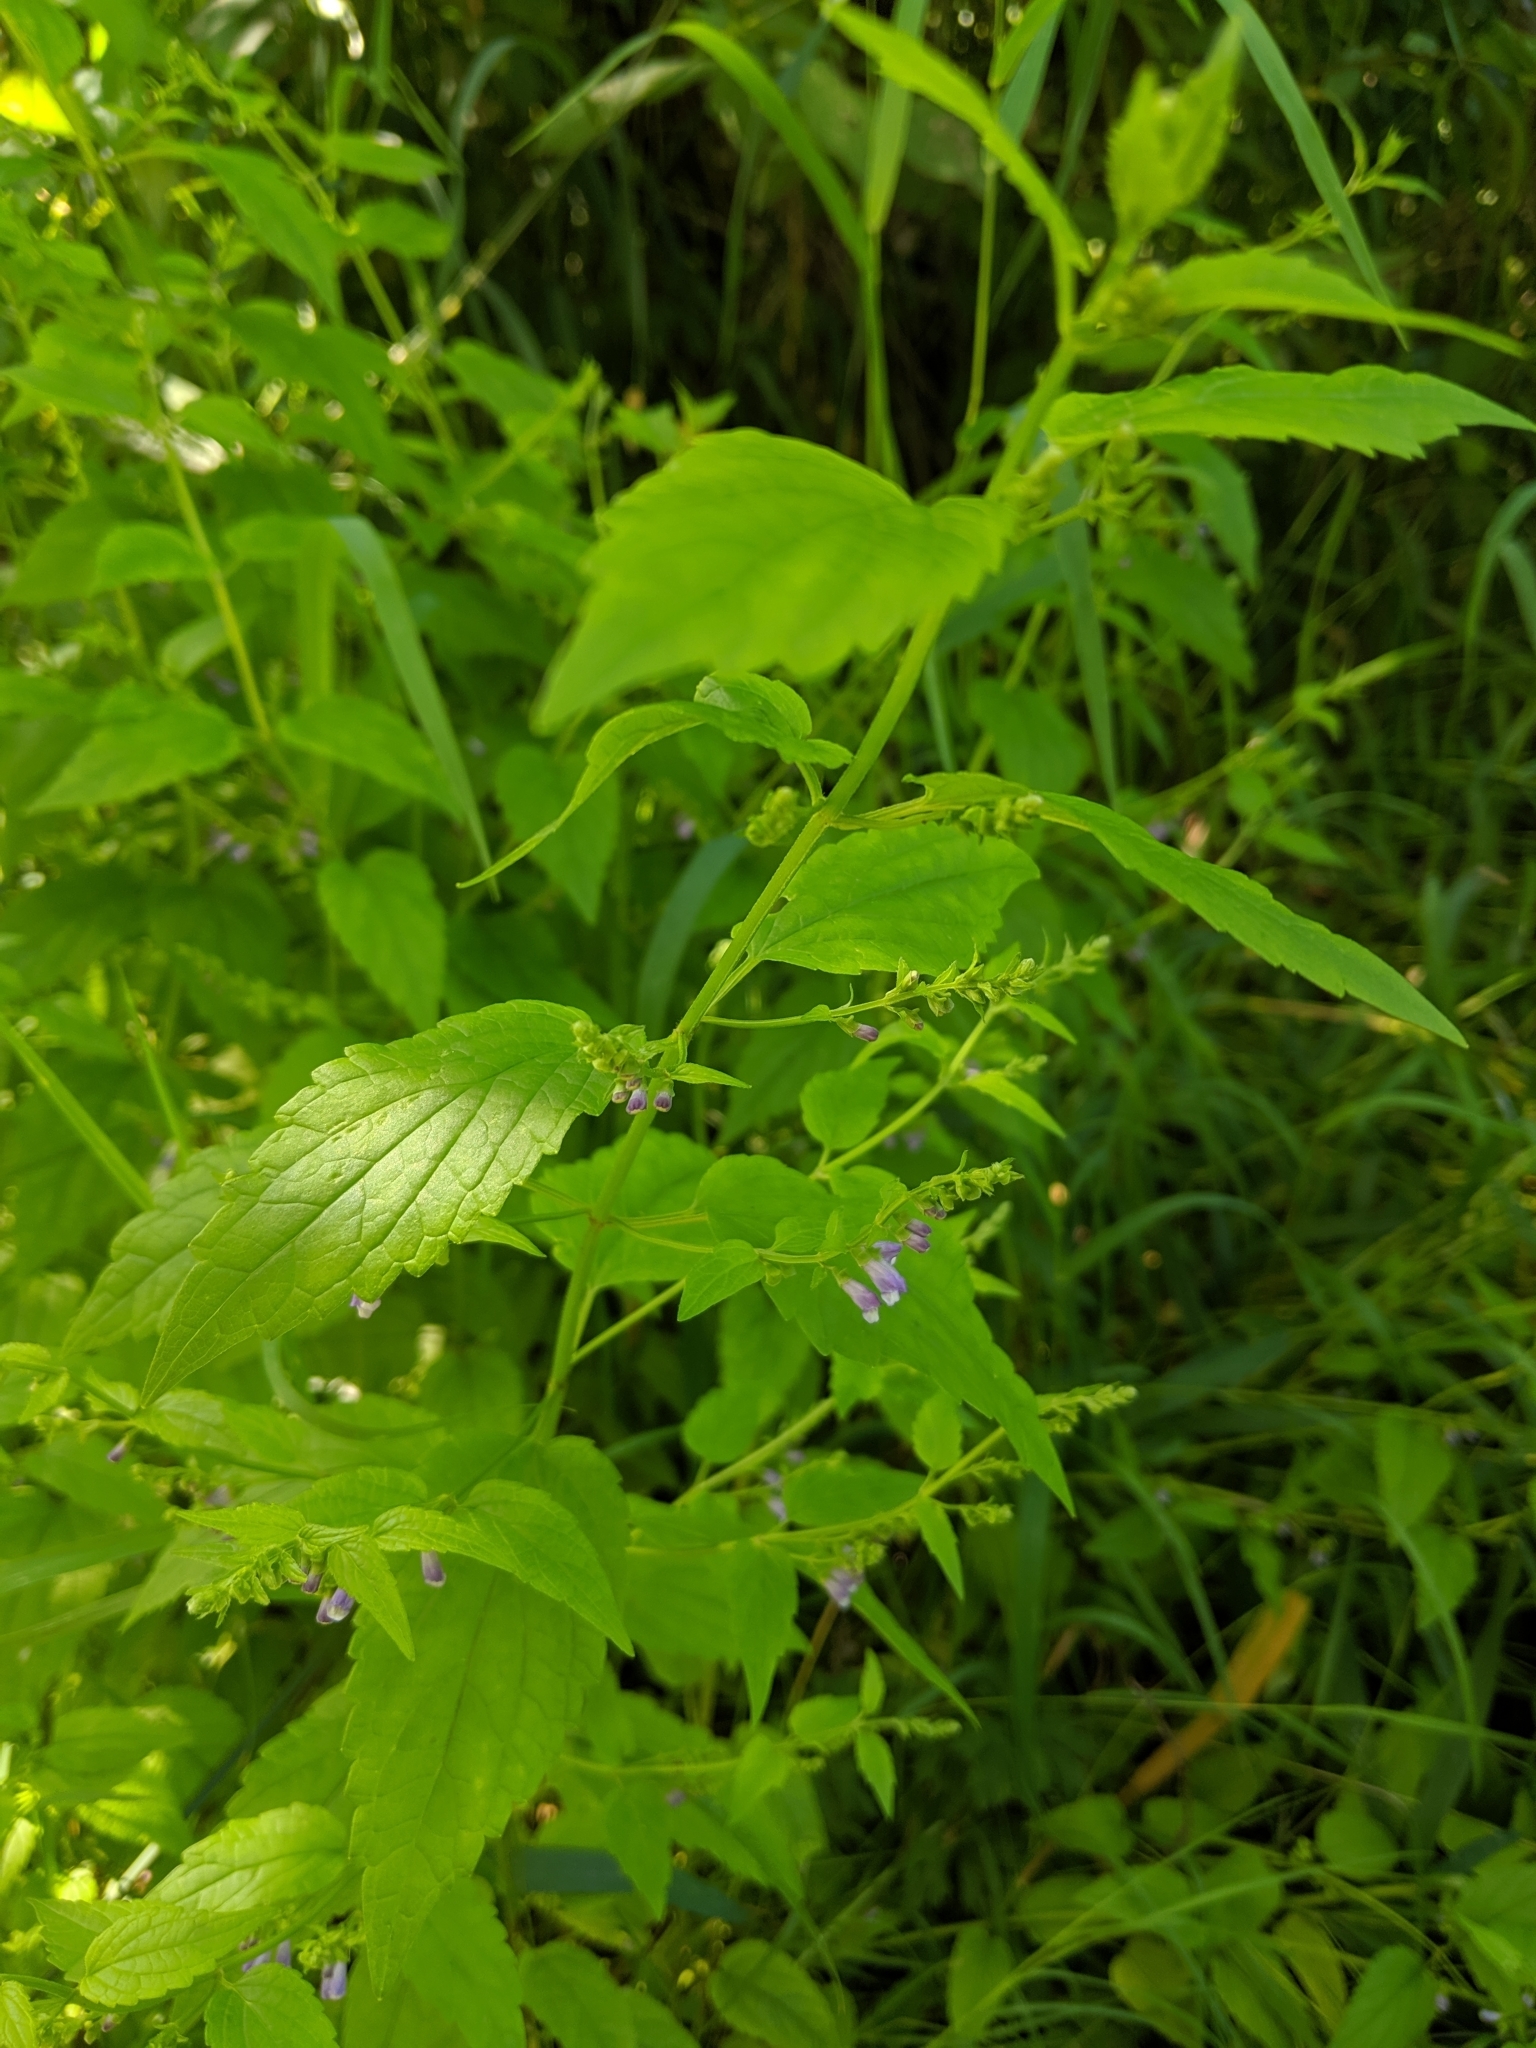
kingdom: Plantae
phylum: Tracheophyta
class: Magnoliopsida
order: Lamiales
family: Lamiaceae
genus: Scutellaria
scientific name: Scutellaria lateriflora
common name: Blue skullcap
